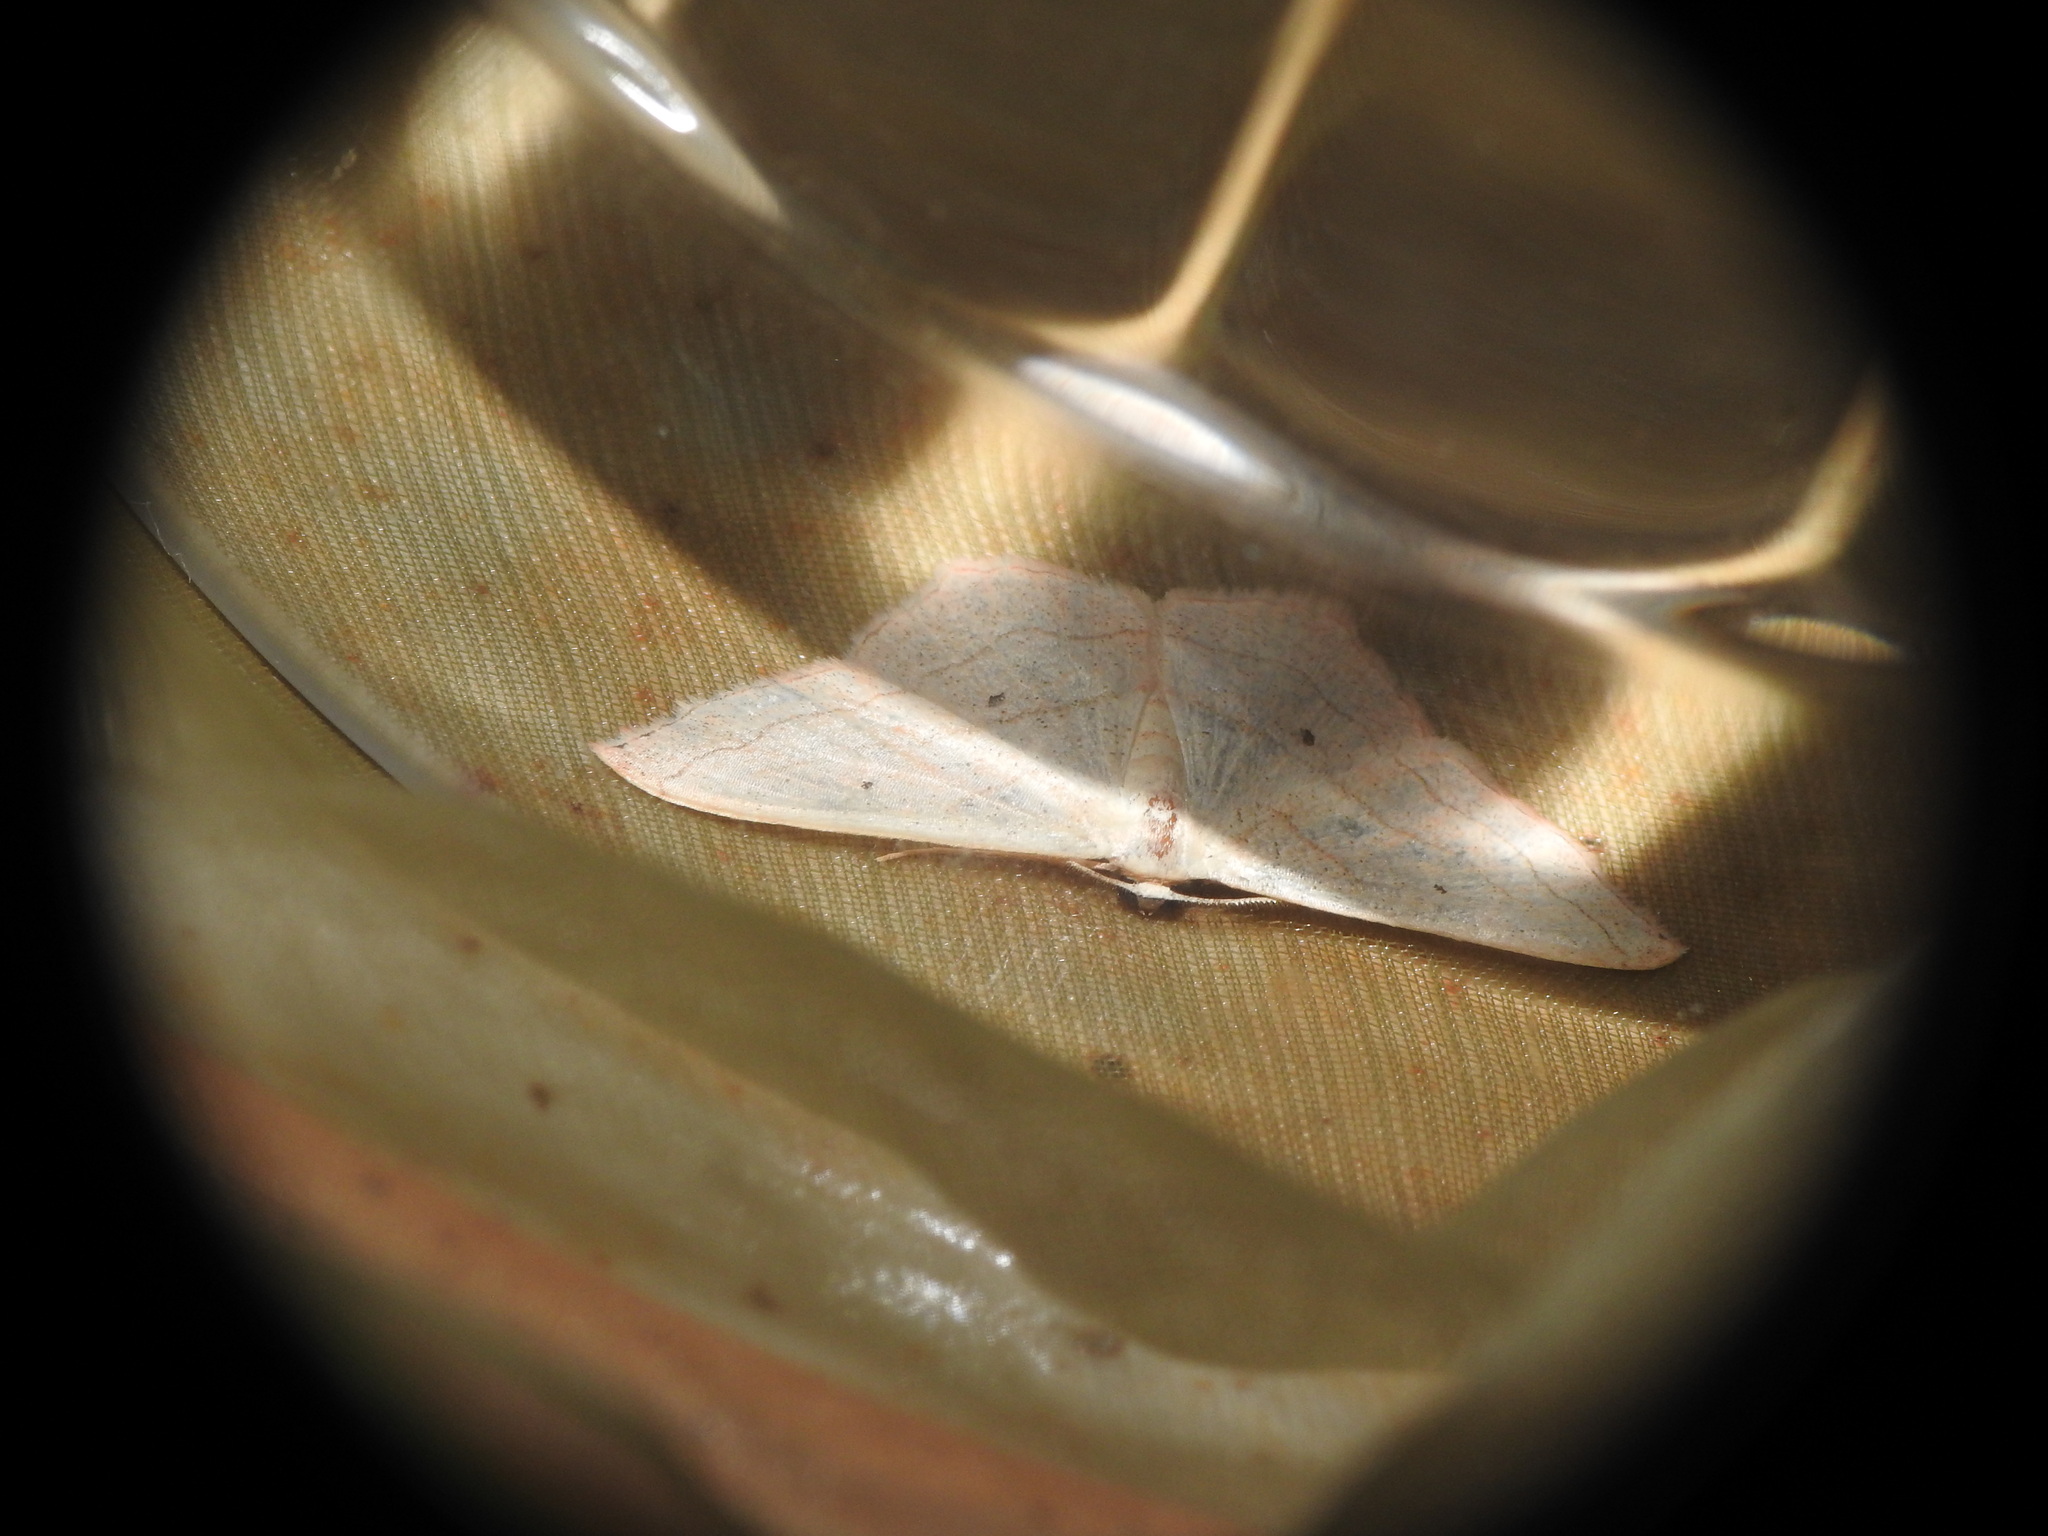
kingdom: Animalia
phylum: Arthropoda
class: Insecta
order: Lepidoptera
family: Geometridae
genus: Scopula
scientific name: Scopula imitaria
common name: Small blood-vein
